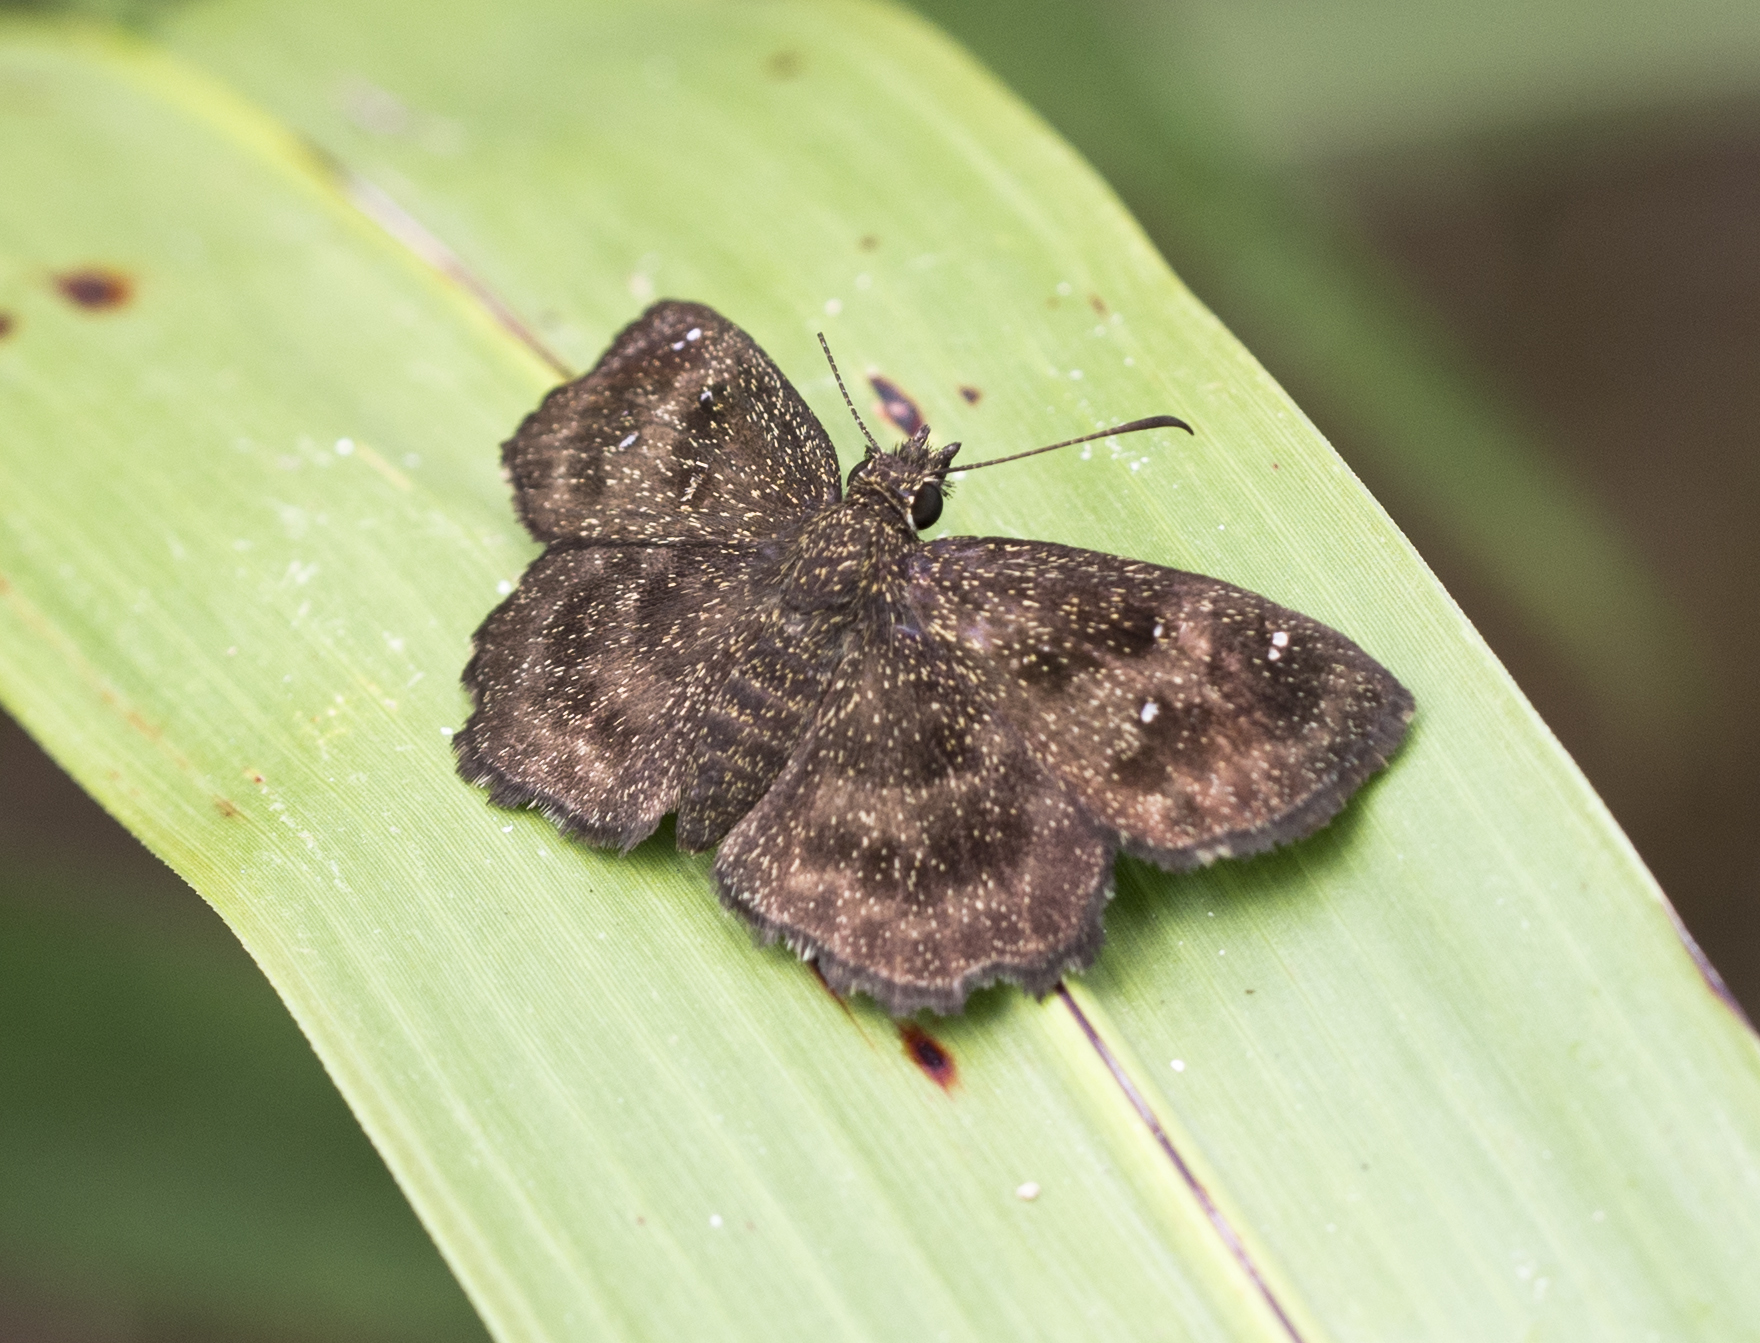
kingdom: Animalia
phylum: Arthropoda
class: Insecta
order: Lepidoptera
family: Hesperiidae
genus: Staphylus
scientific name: Staphylus mazans
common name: Mazans scallopwing
